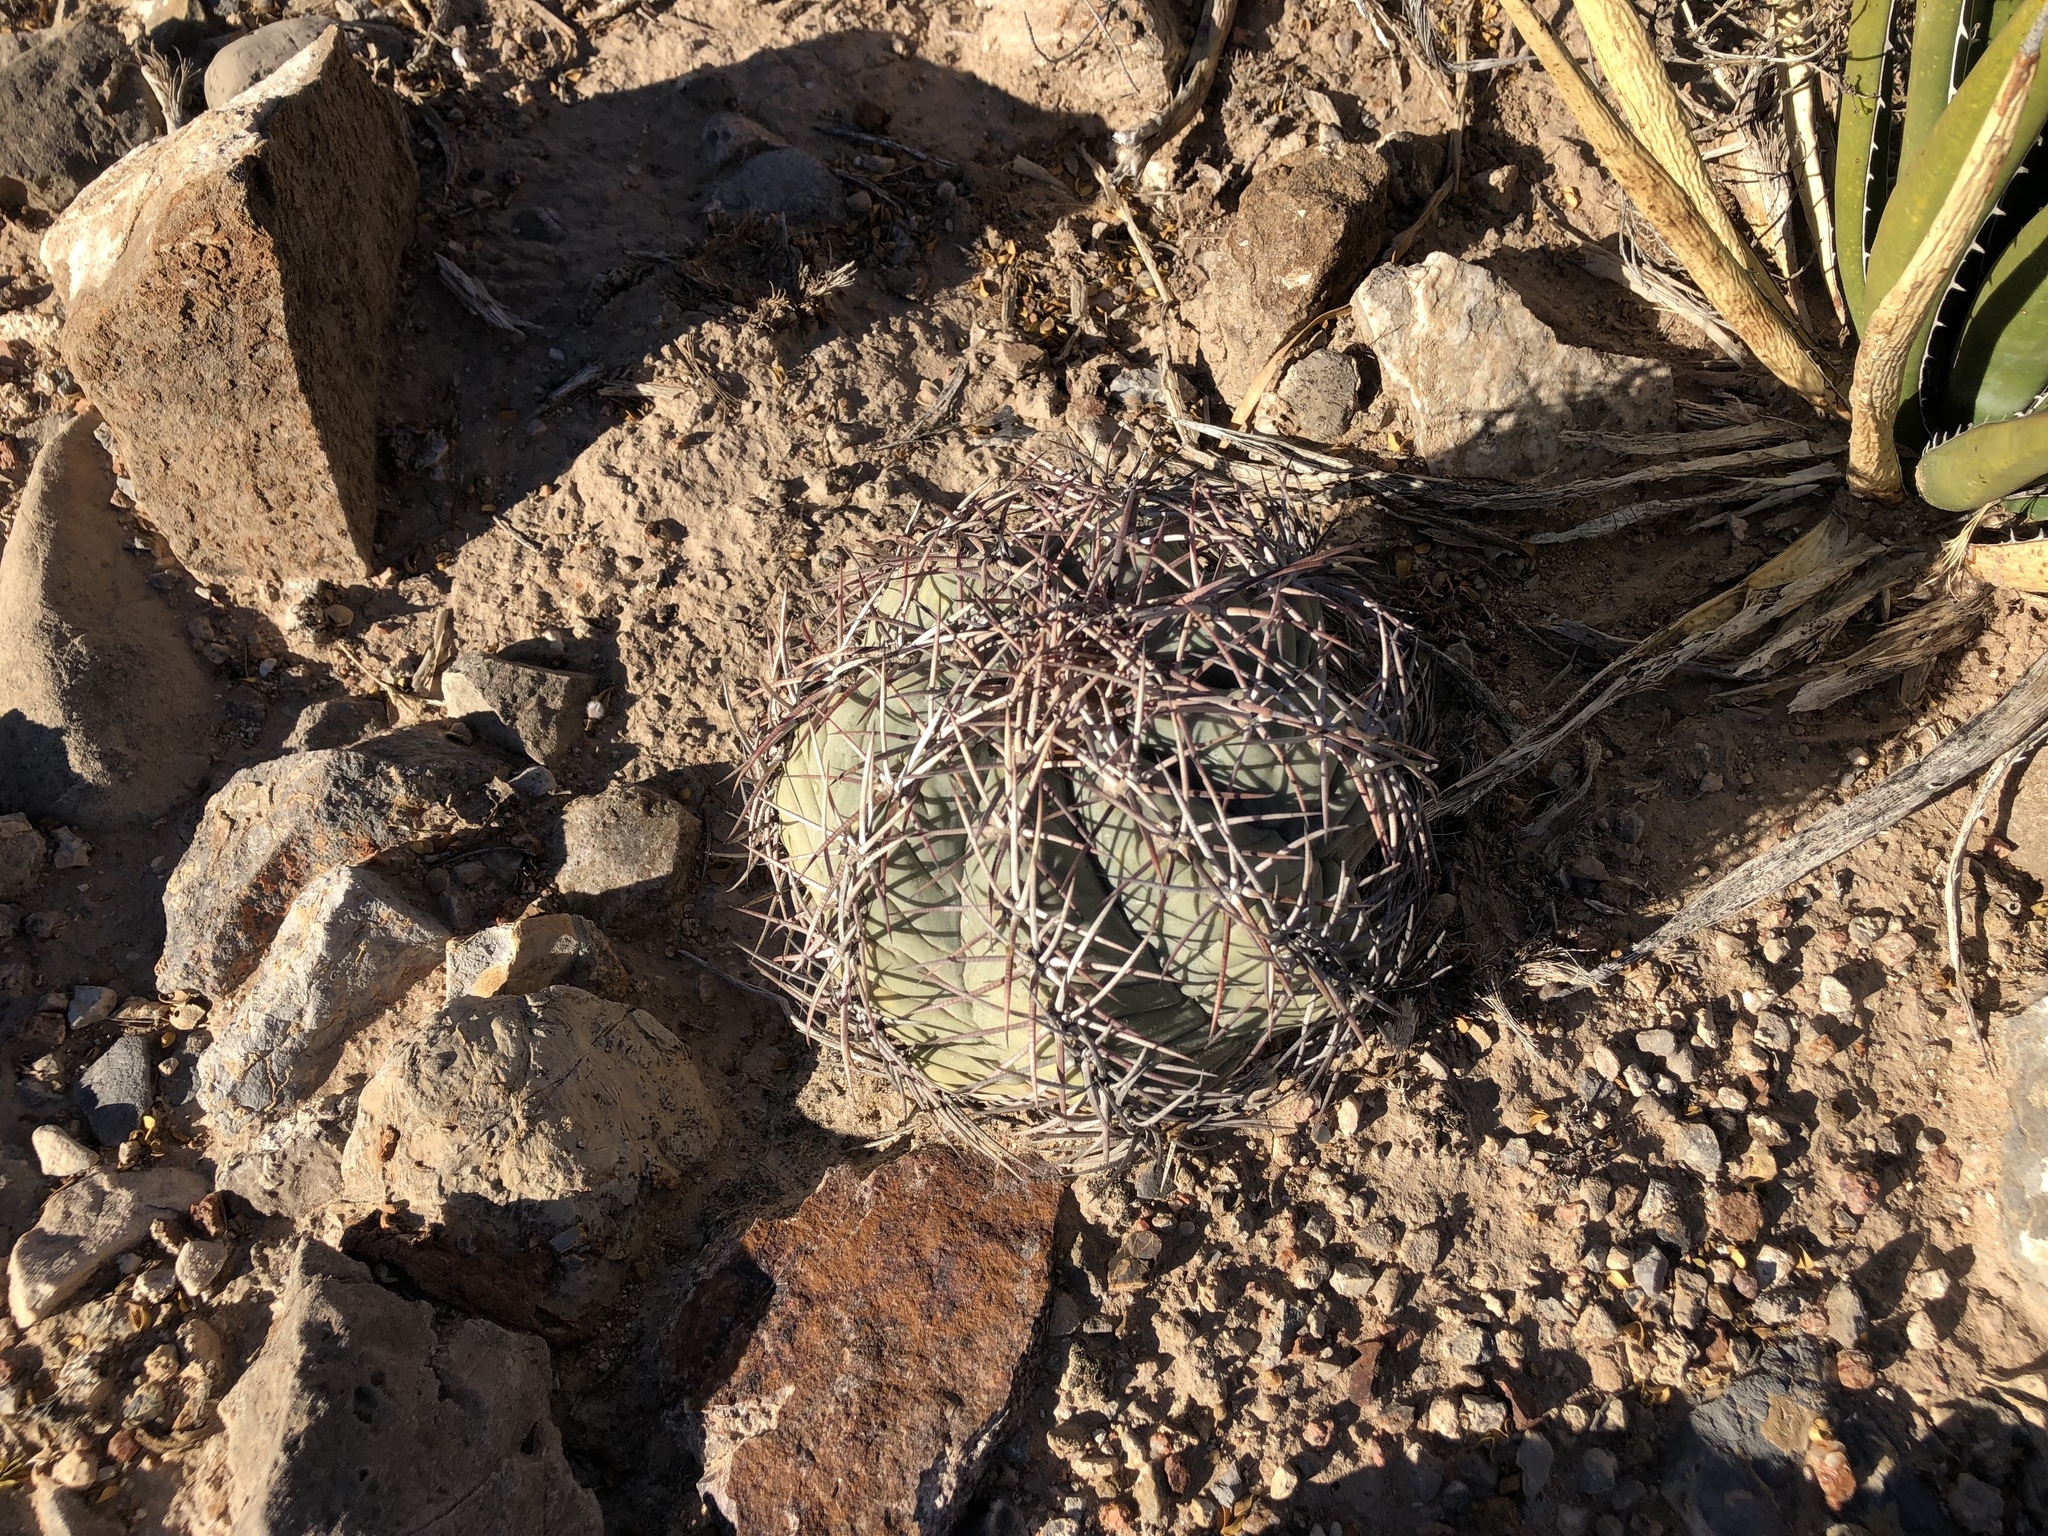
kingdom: Plantae
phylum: Tracheophyta
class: Magnoliopsida
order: Caryophyllales
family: Cactaceae
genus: Echinocactus
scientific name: Echinocactus horizonthalonius
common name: Devilshead
